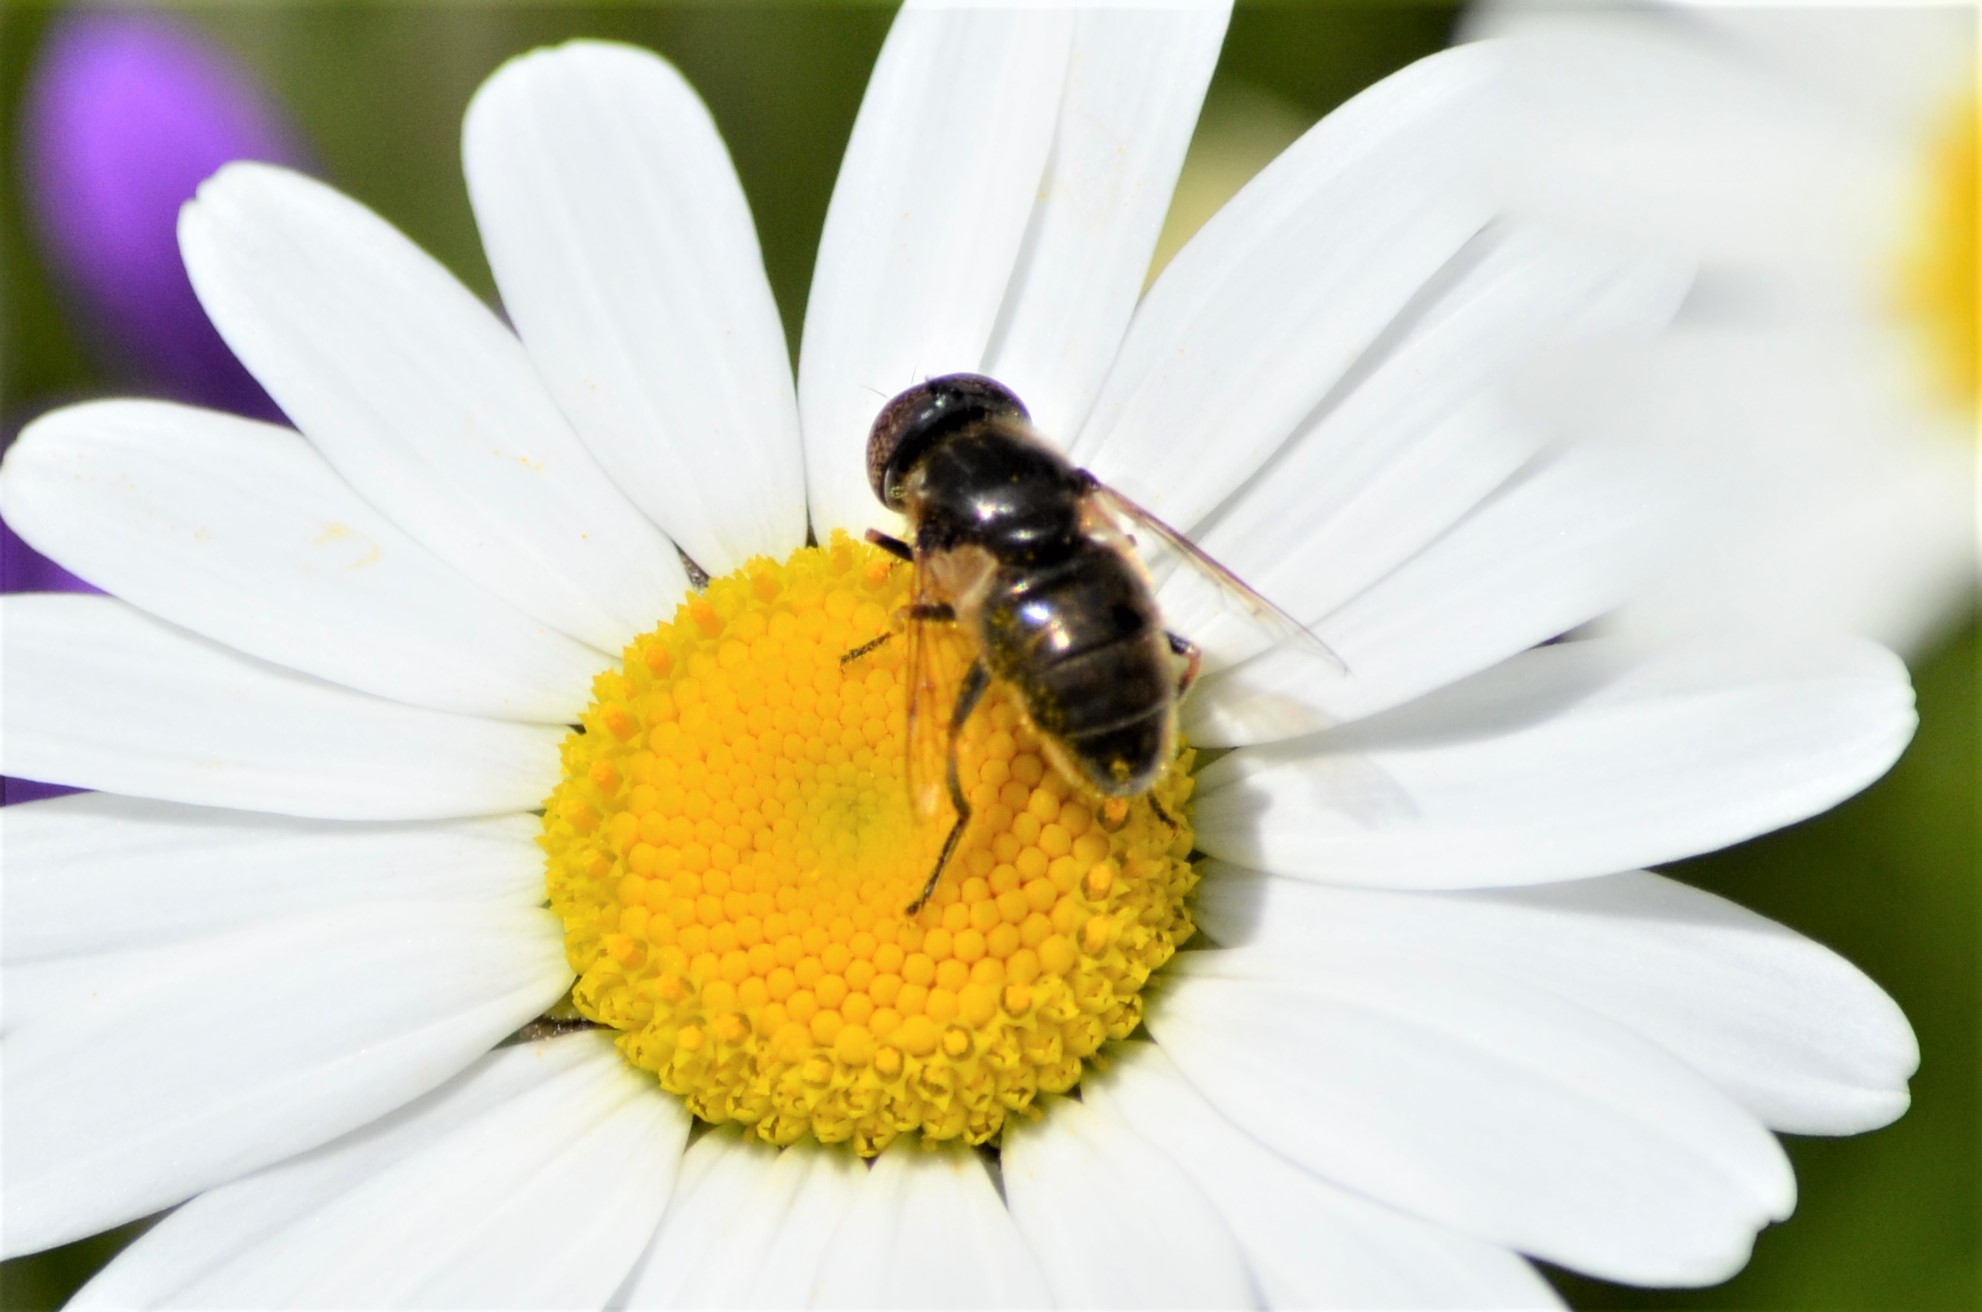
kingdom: Animalia
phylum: Arthropoda
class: Insecta
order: Diptera
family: Syrphidae
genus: Eristalinus
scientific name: Eristalinus aeneus
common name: Syrphid fly
